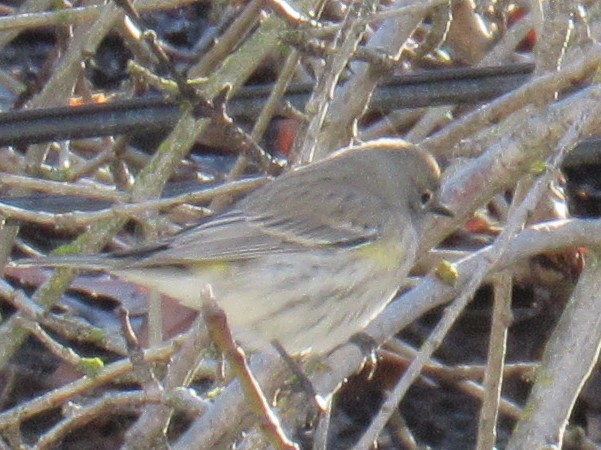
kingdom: Animalia
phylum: Chordata
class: Aves
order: Passeriformes
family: Parulidae
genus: Setophaga
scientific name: Setophaga coronata
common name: Myrtle warbler
